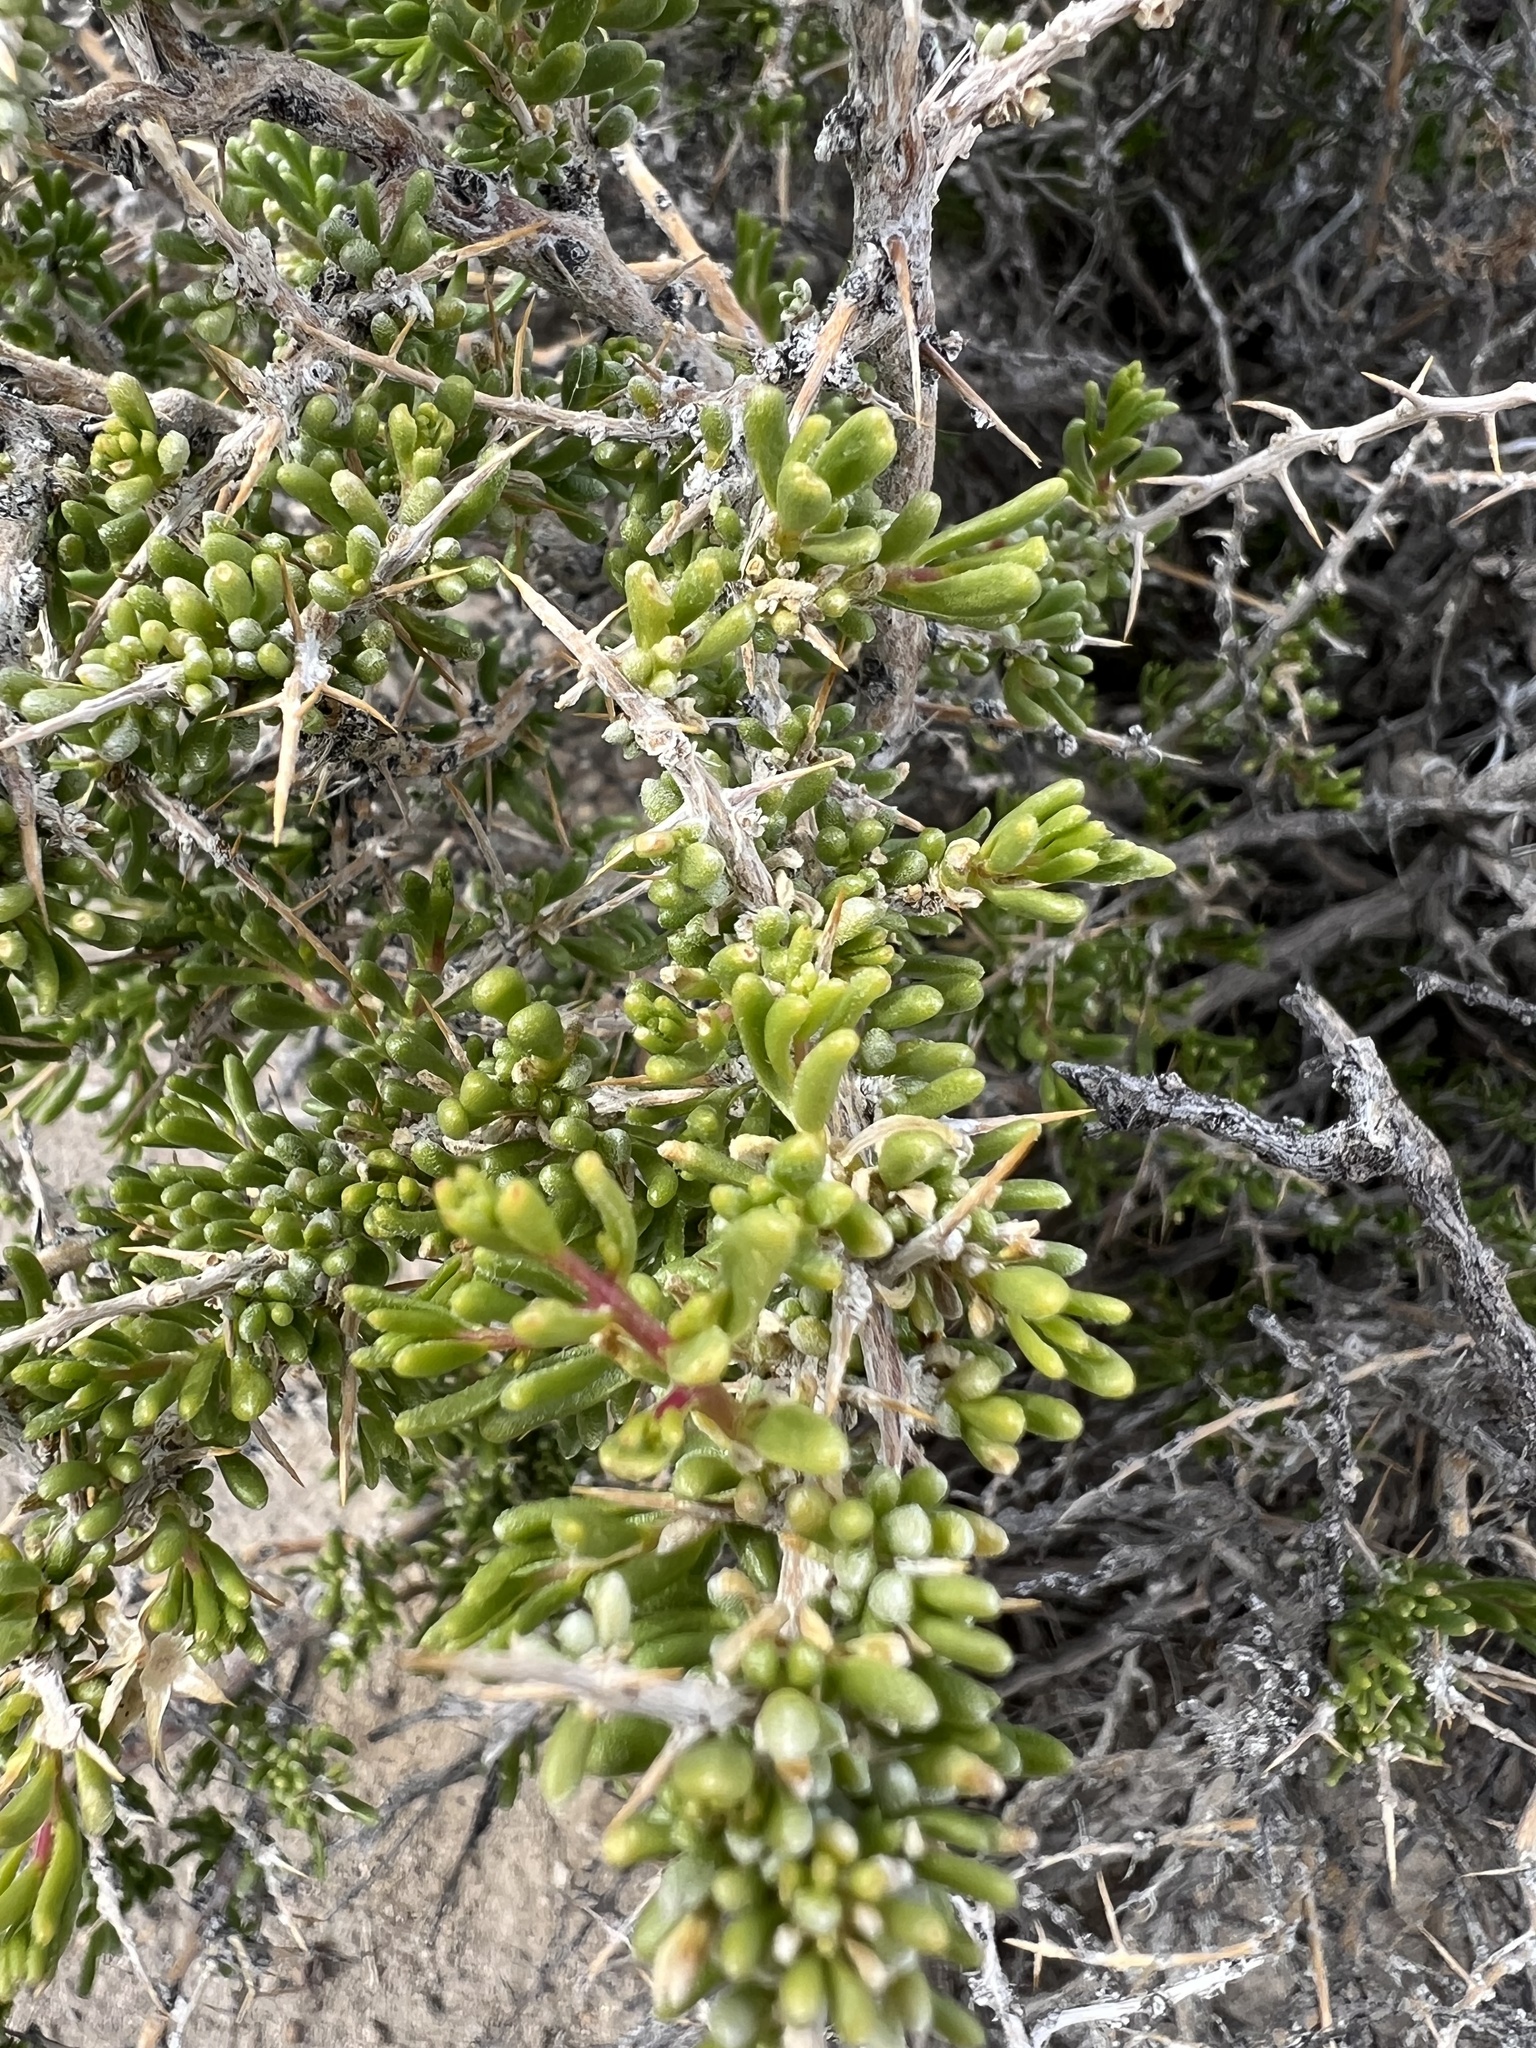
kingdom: Plantae
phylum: Tracheophyta
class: Magnoliopsida
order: Caryophyllales
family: Sarcobataceae
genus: Sarcobatus
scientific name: Sarcobatus baileyi
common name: Bailey greasewood
